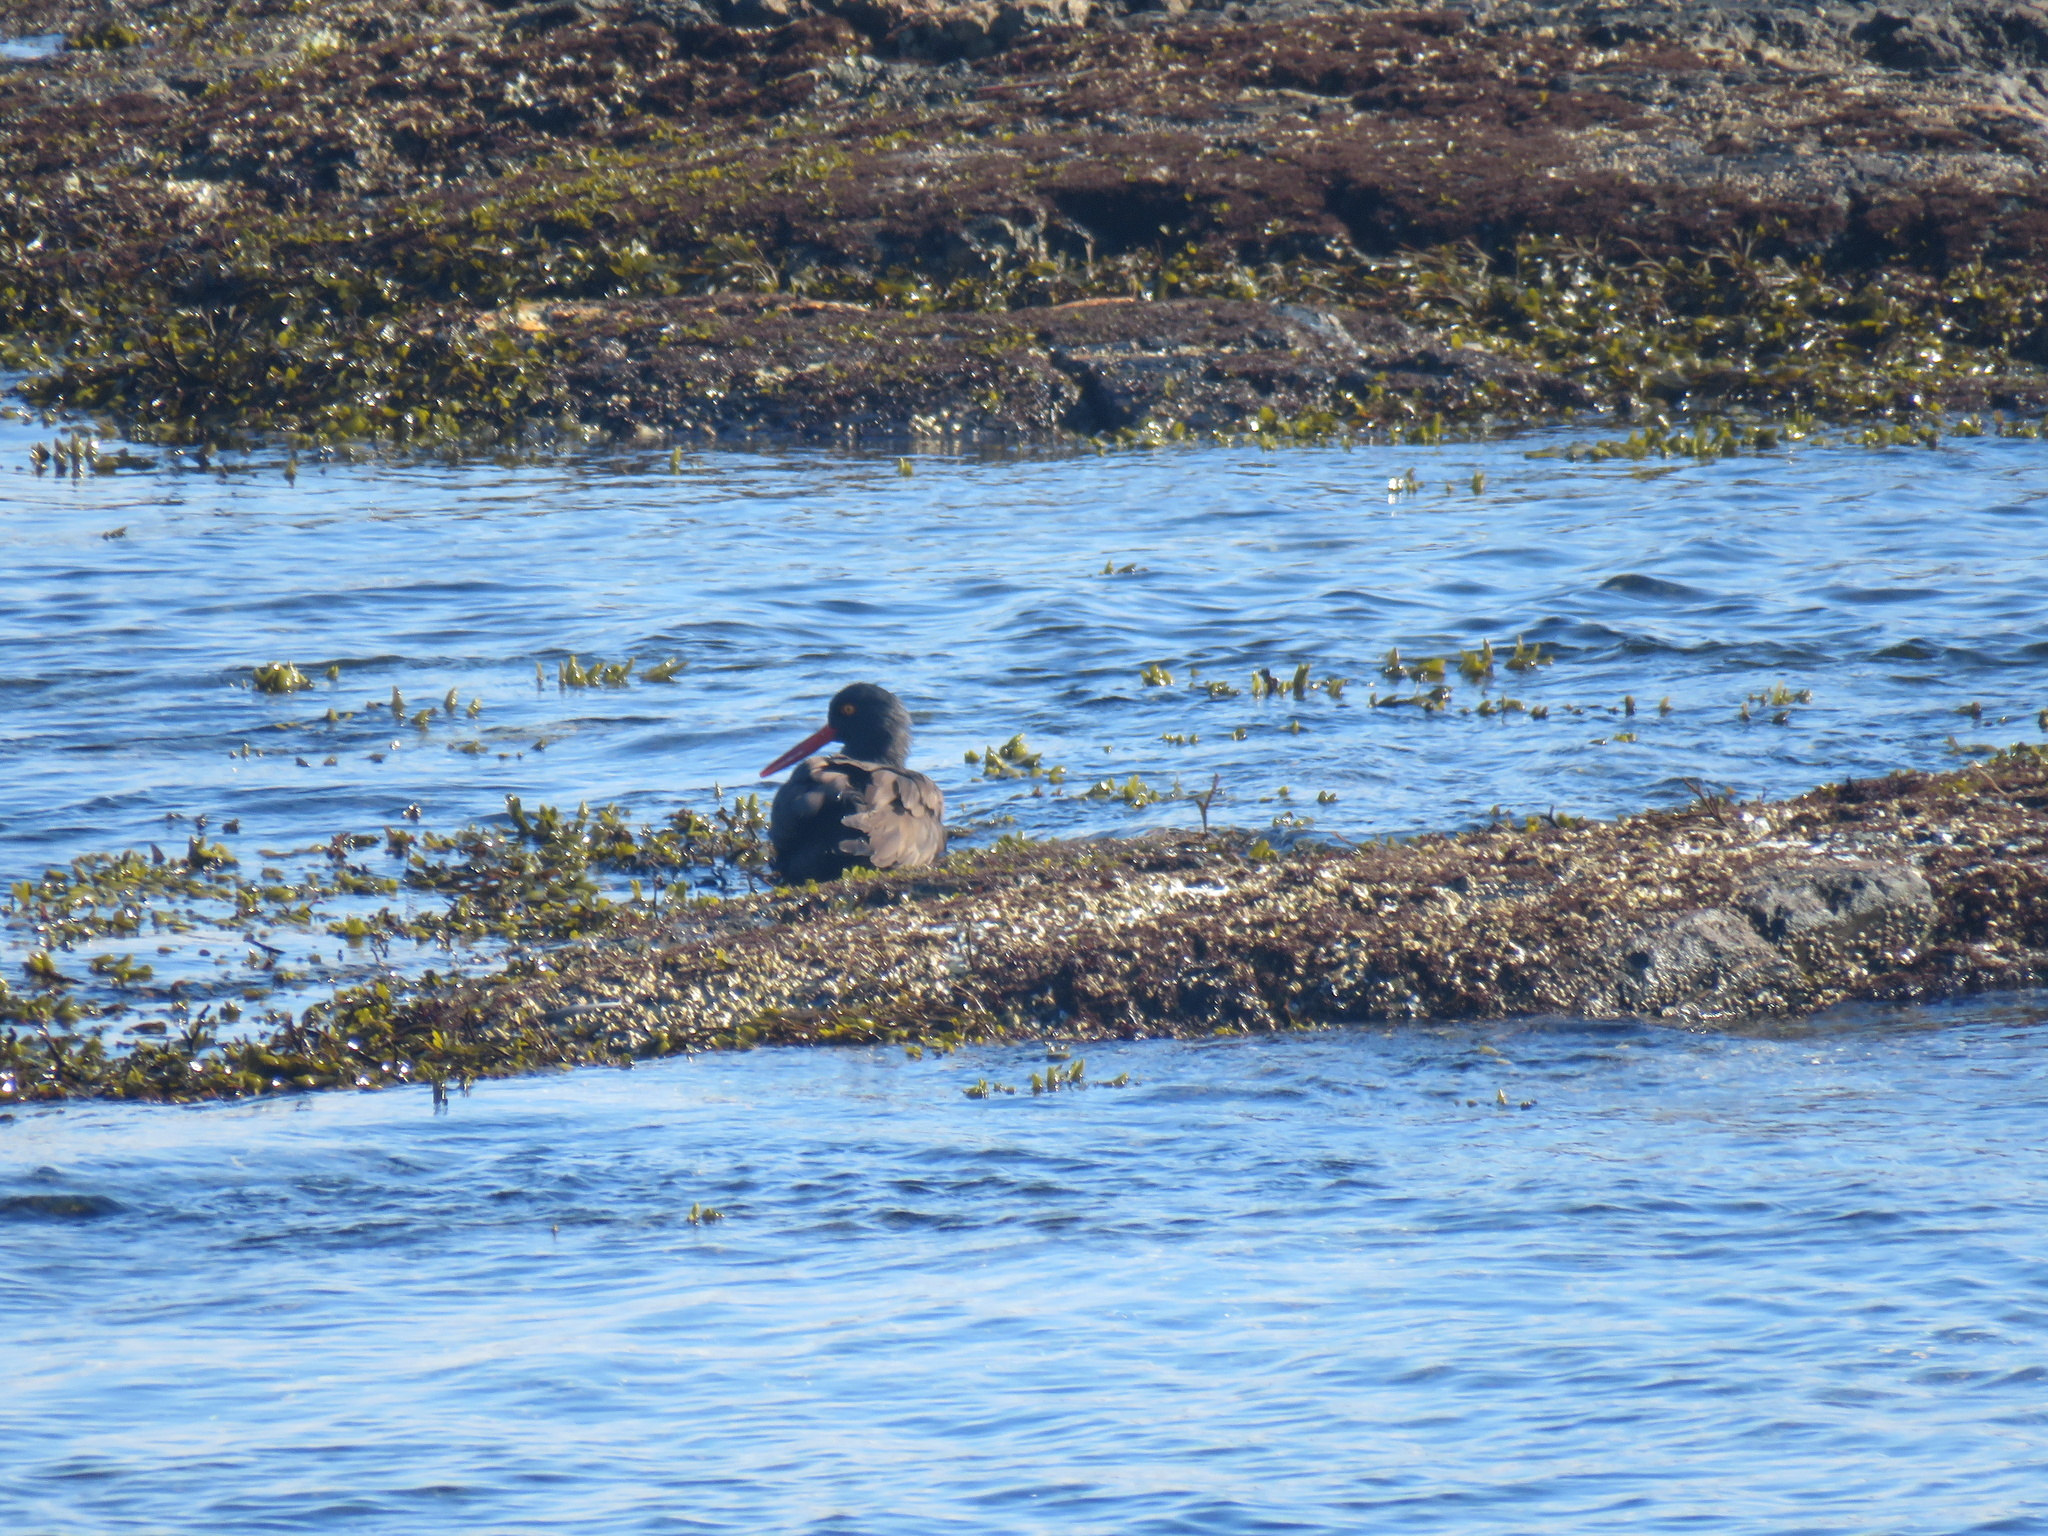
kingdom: Animalia
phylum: Chordata
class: Aves
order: Charadriiformes
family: Haematopodidae
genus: Haematopus
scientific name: Haematopus bachmani
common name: Black oystercatcher
